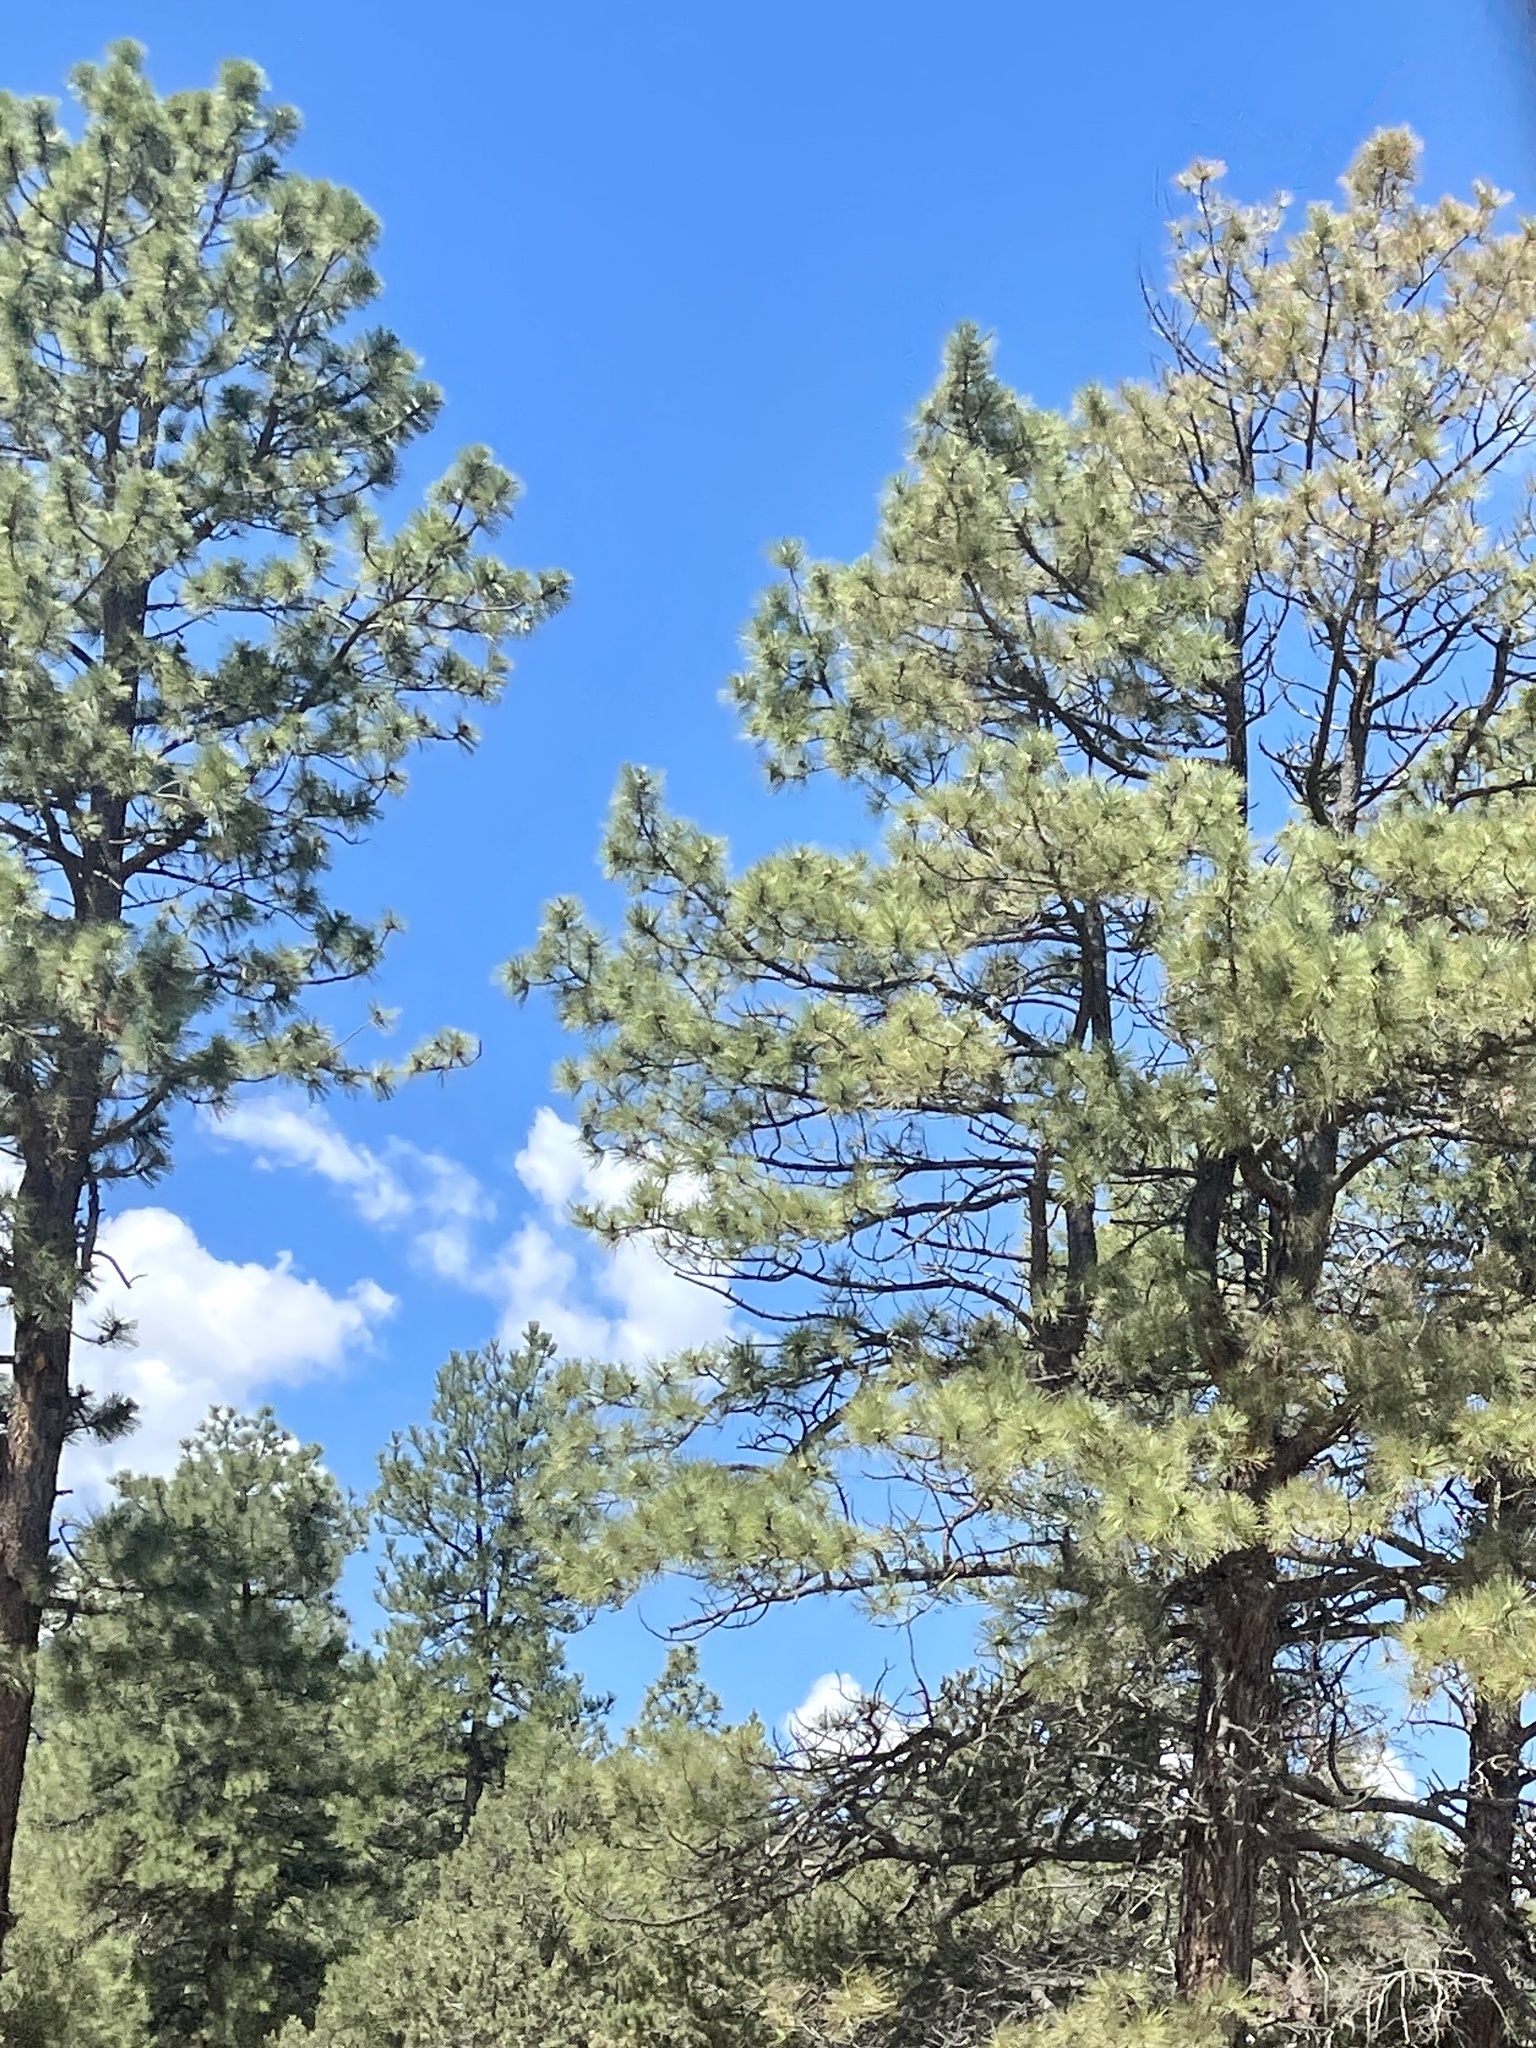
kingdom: Plantae
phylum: Tracheophyta
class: Pinopsida
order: Pinales
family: Pinaceae
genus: Pinus
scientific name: Pinus ponderosa
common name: Western yellow-pine
